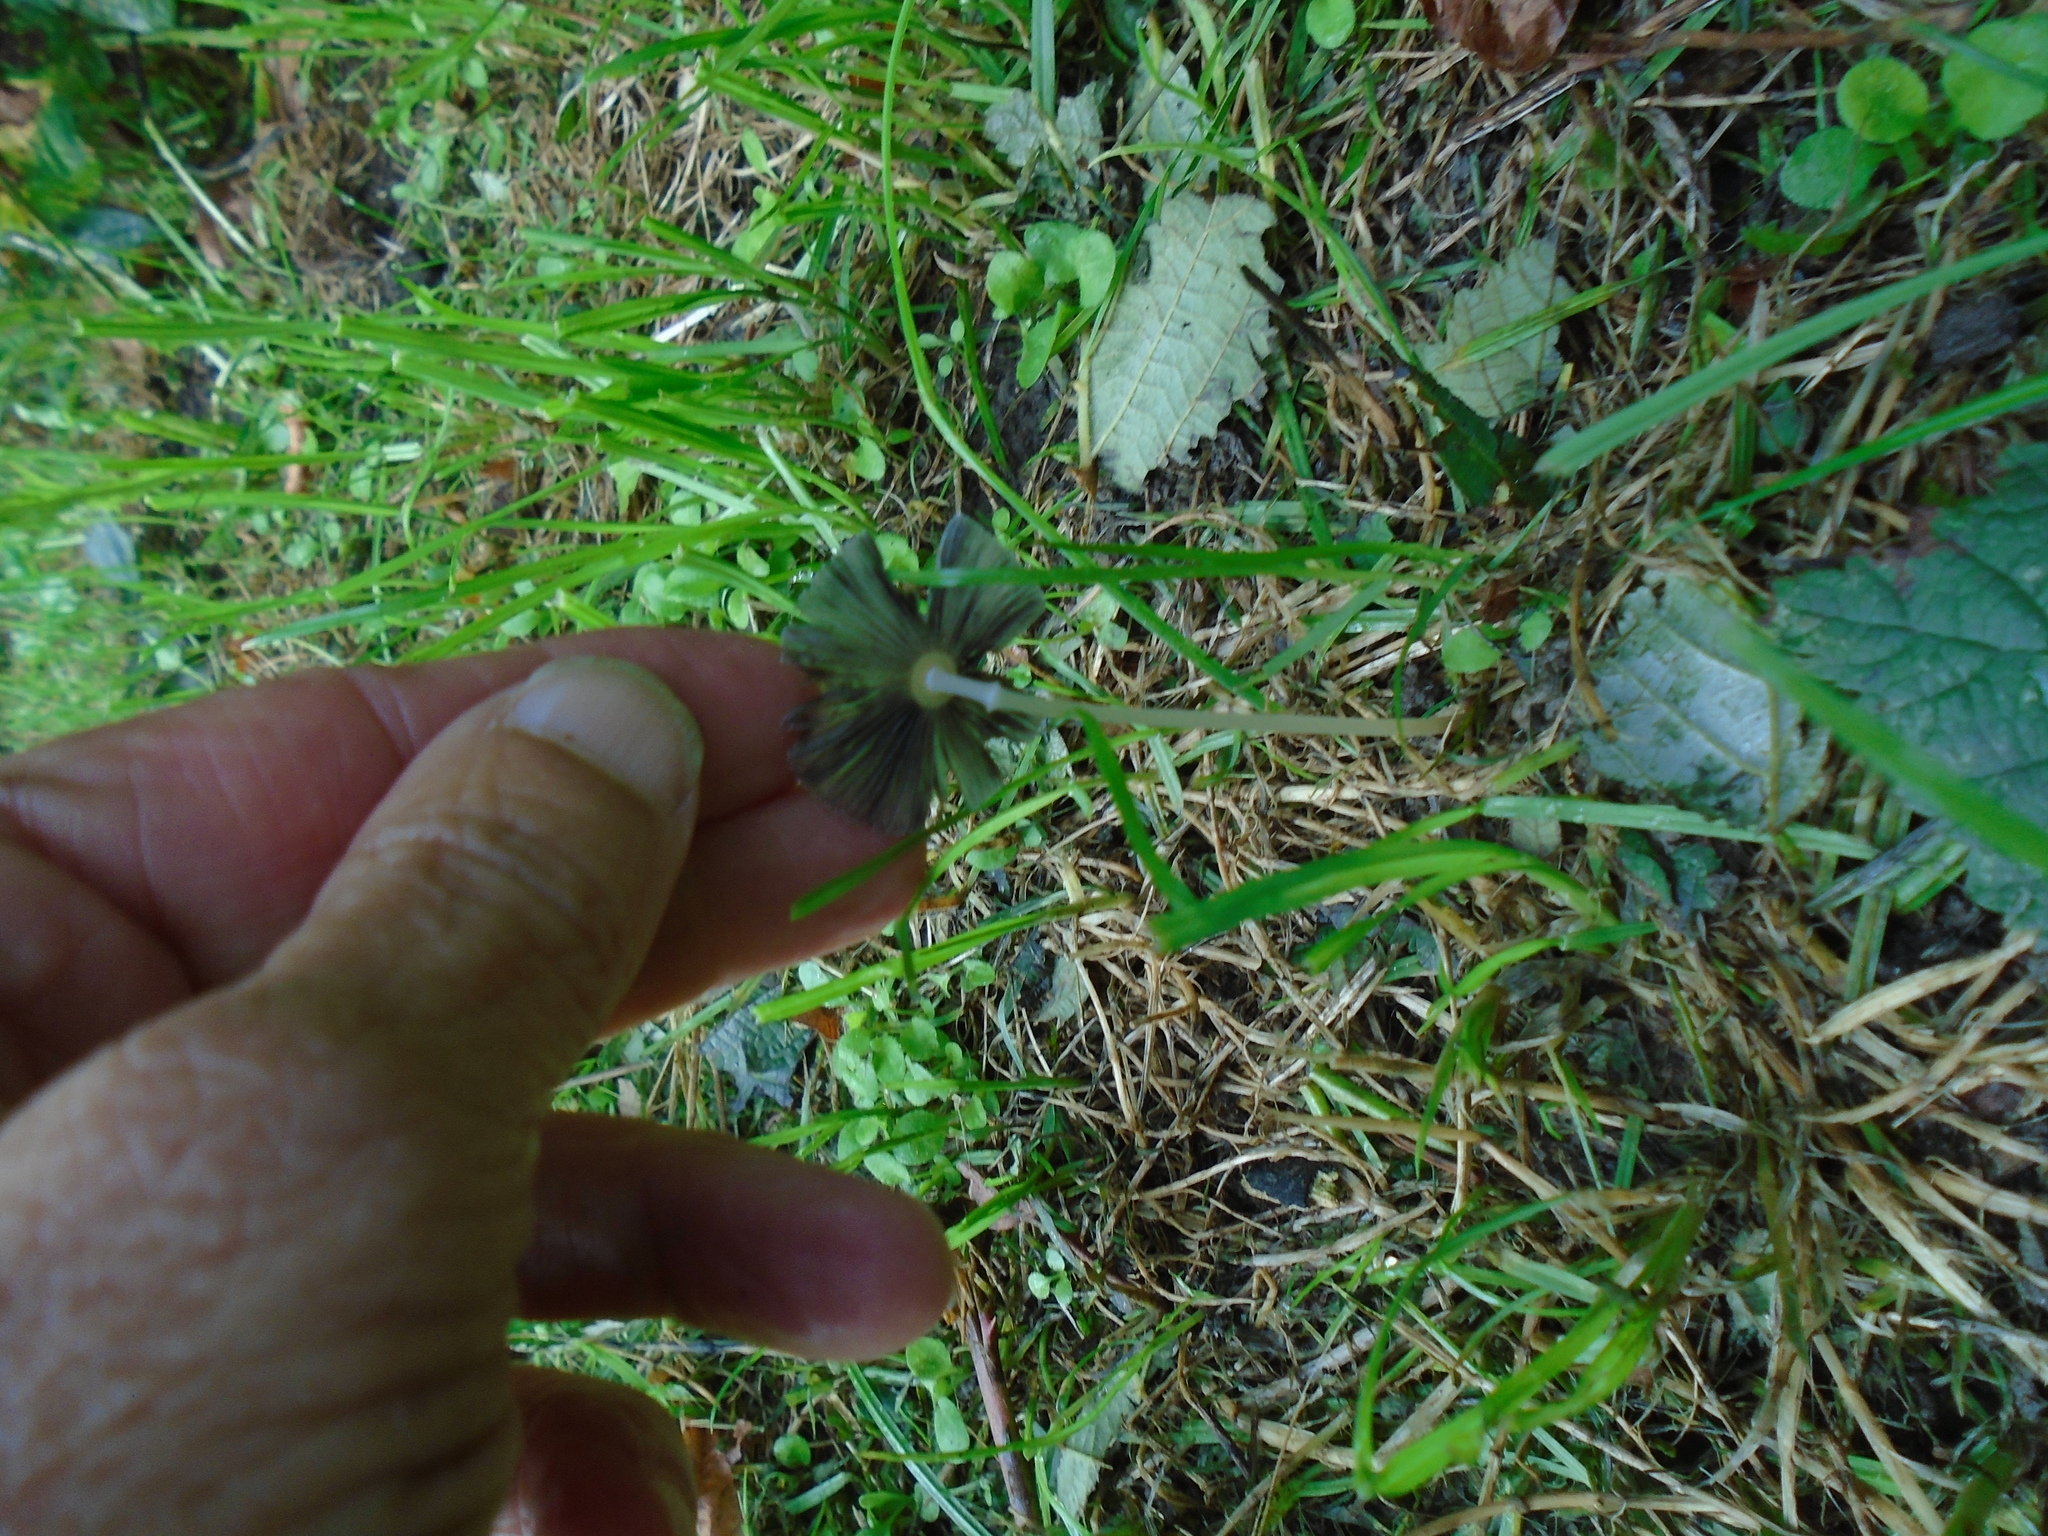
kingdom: Fungi
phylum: Basidiomycota
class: Agaricomycetes
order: Agaricales
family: Psathyrellaceae
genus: Parasola
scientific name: Parasola plicatilis
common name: Pleated inkcap
